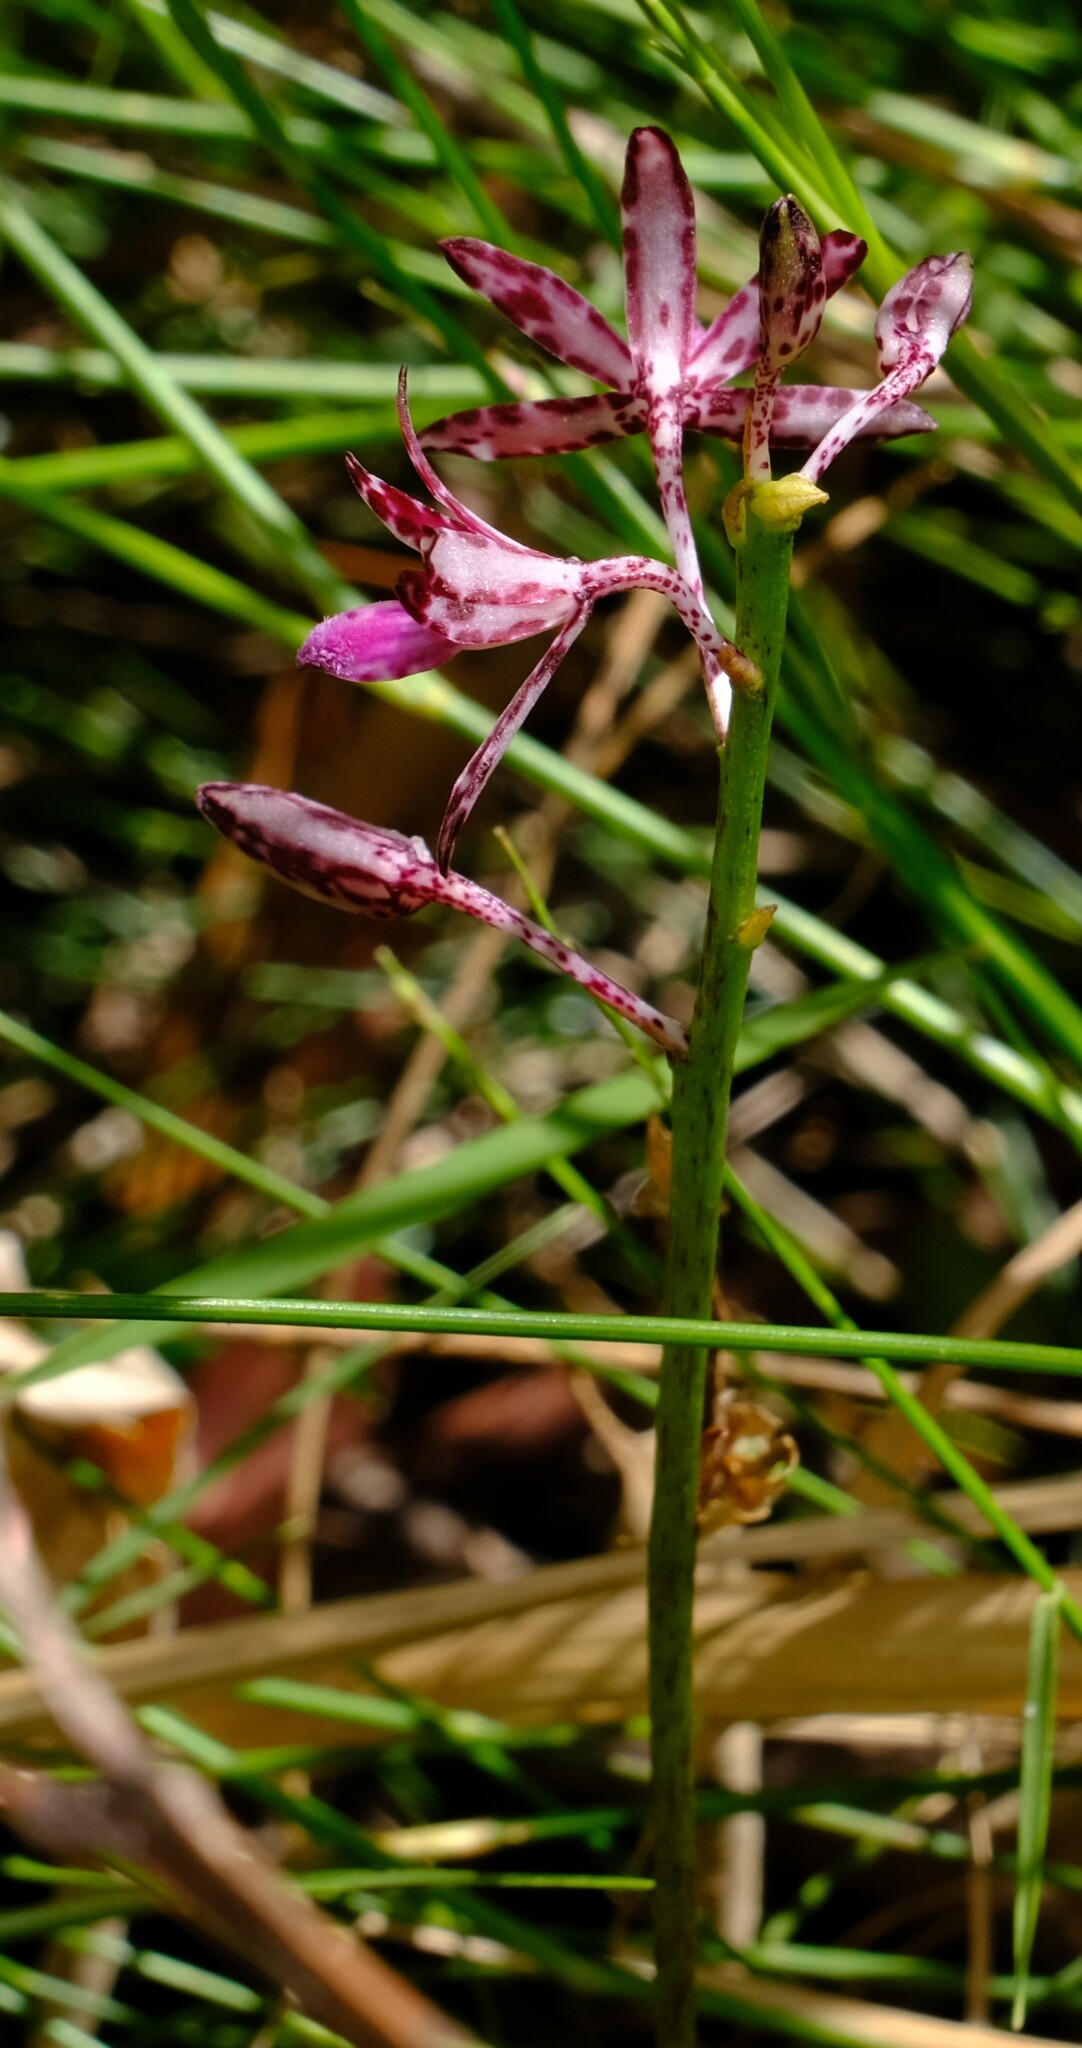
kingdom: Plantae
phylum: Tracheophyta
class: Liliopsida
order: Asparagales
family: Orchidaceae
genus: Dipodium
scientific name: Dipodium variegatum
